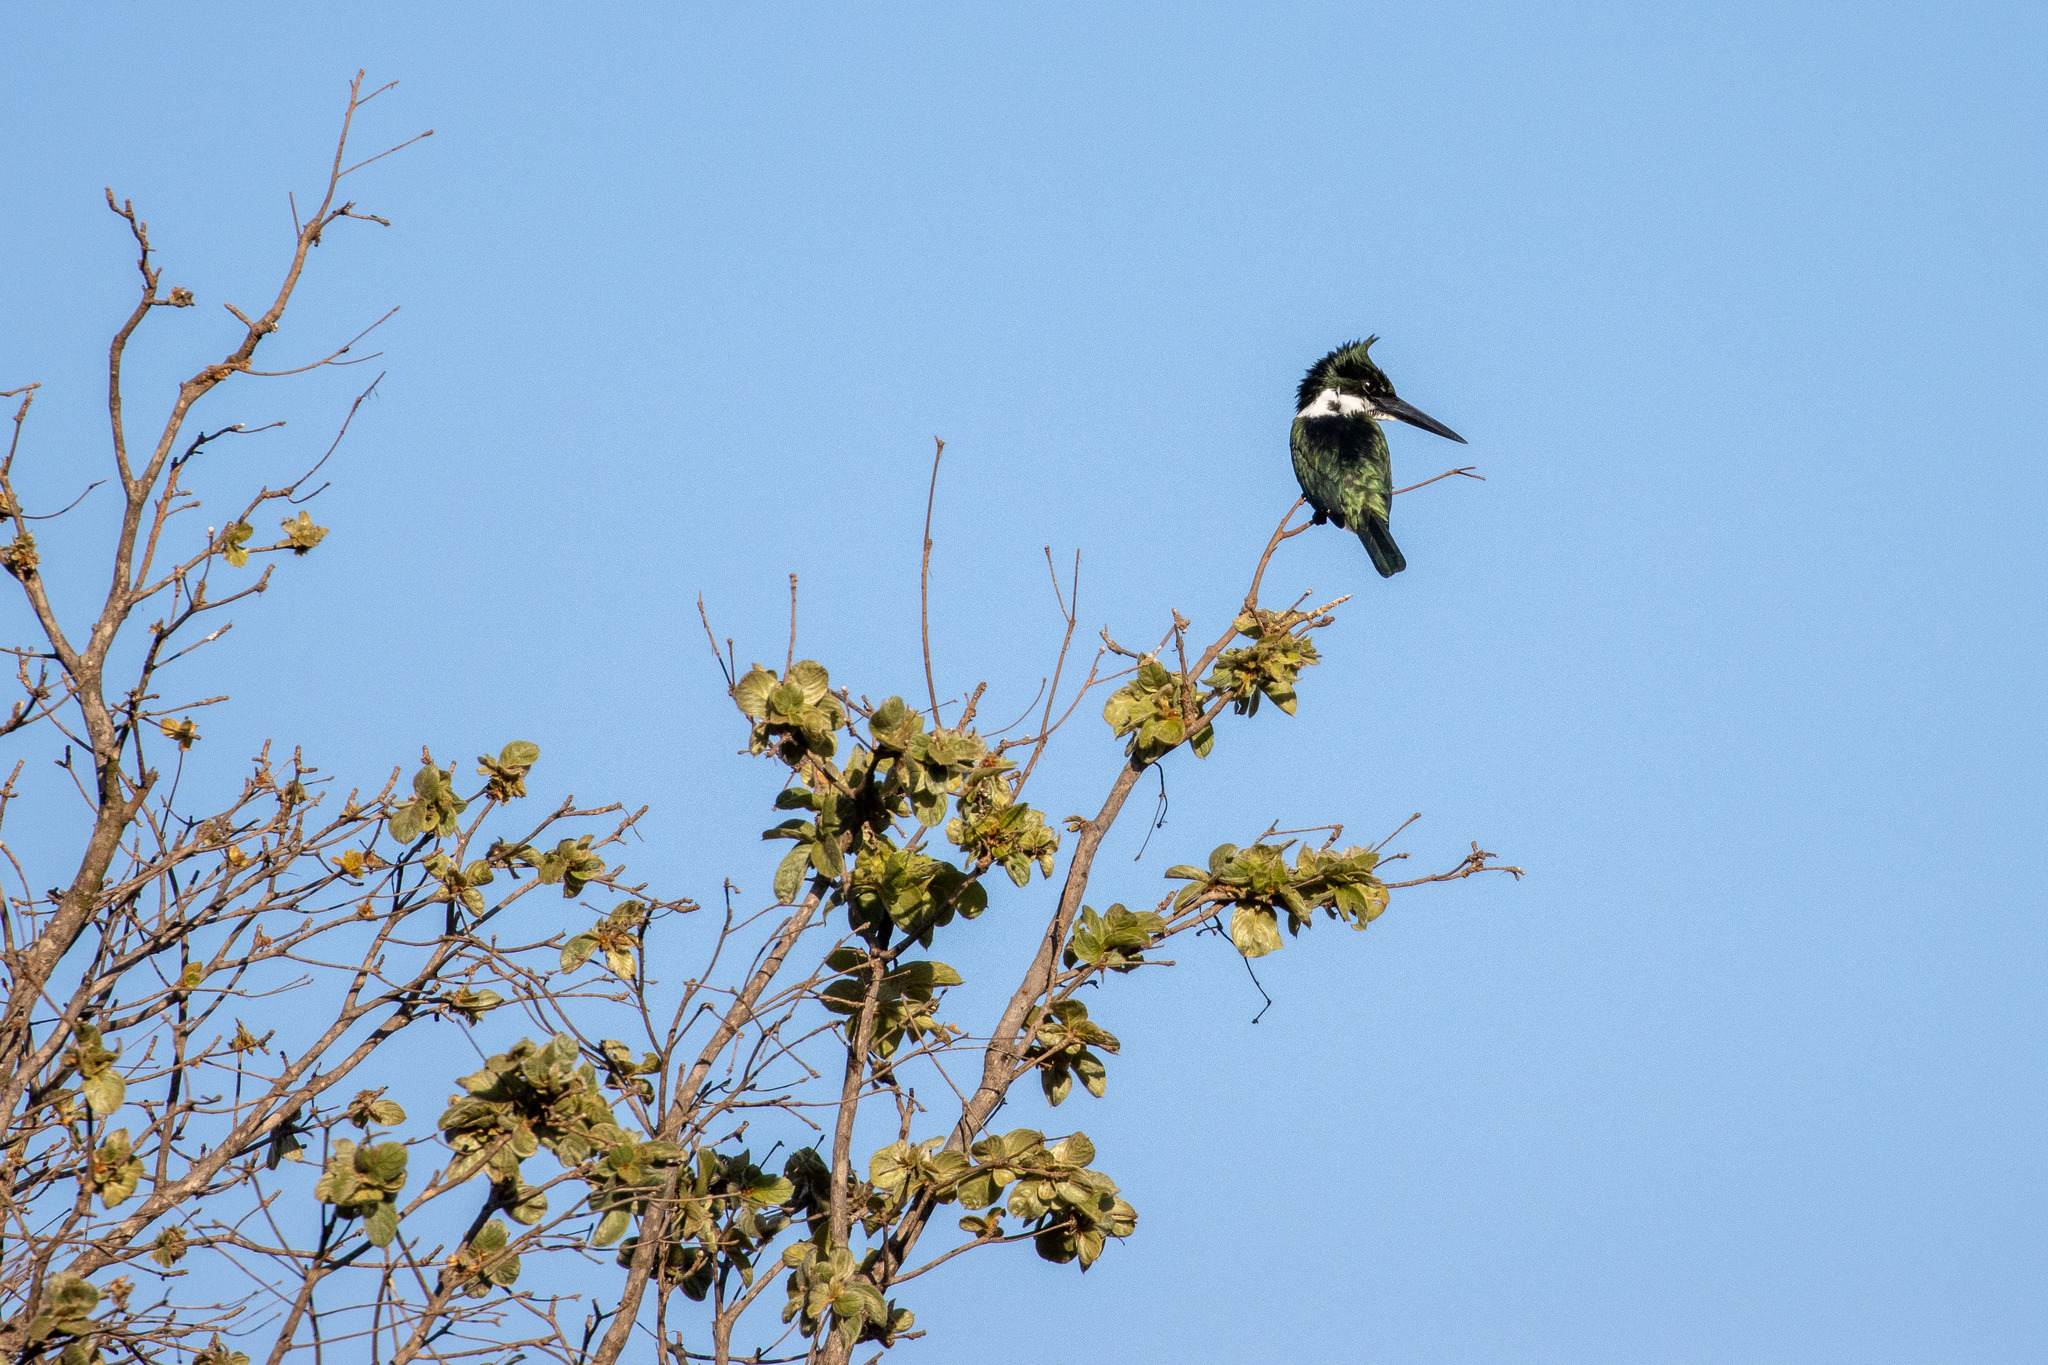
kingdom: Animalia
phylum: Chordata
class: Aves
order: Coraciiformes
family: Alcedinidae
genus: Chloroceryle
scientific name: Chloroceryle amazona
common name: Amazon kingfisher
